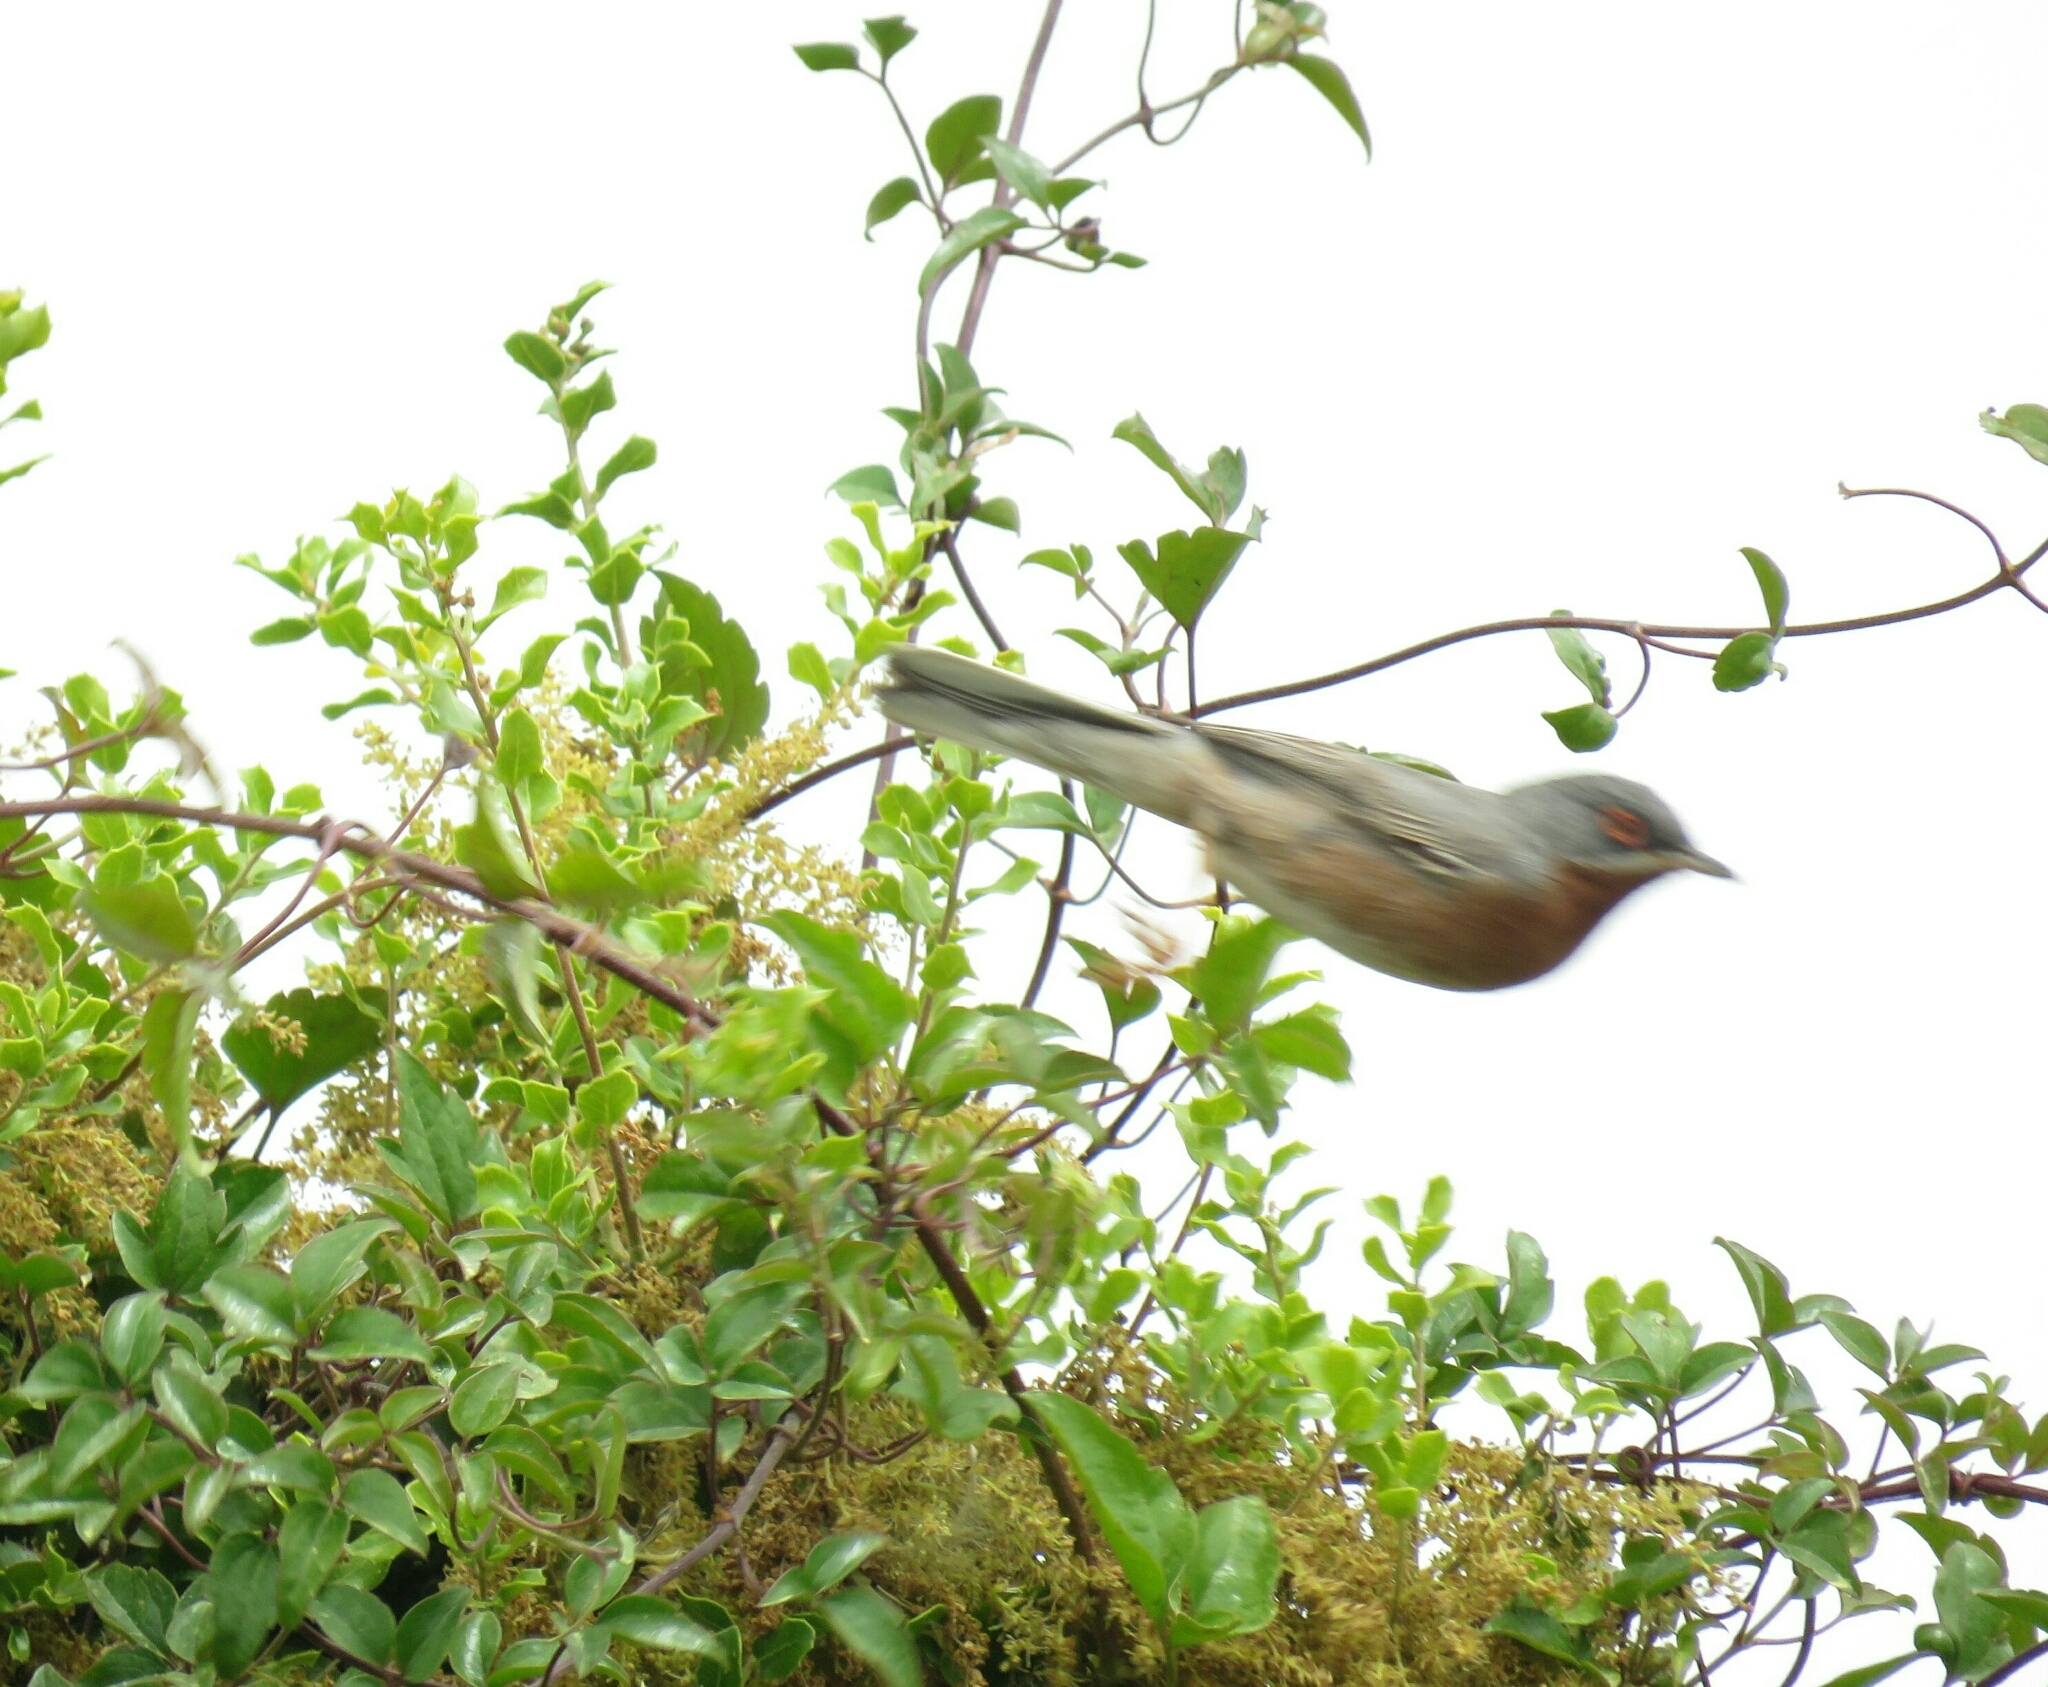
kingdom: Animalia
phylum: Chordata
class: Aves
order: Passeriformes
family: Sylviidae
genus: Curruca
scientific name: Curruca cantillans
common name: Subalpine warbler
